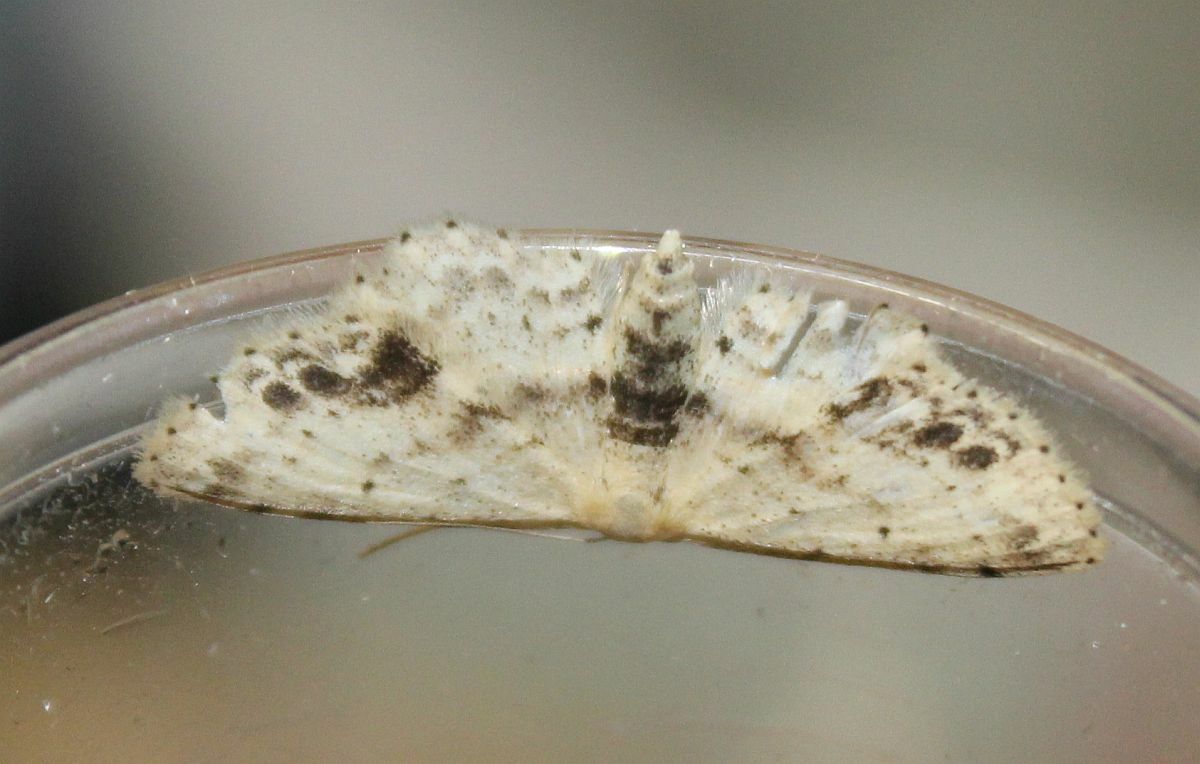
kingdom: Animalia
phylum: Arthropoda
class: Insecta
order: Lepidoptera
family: Geometridae
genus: Idaea
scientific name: Idaea dimidiata
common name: Single-dotted wave
